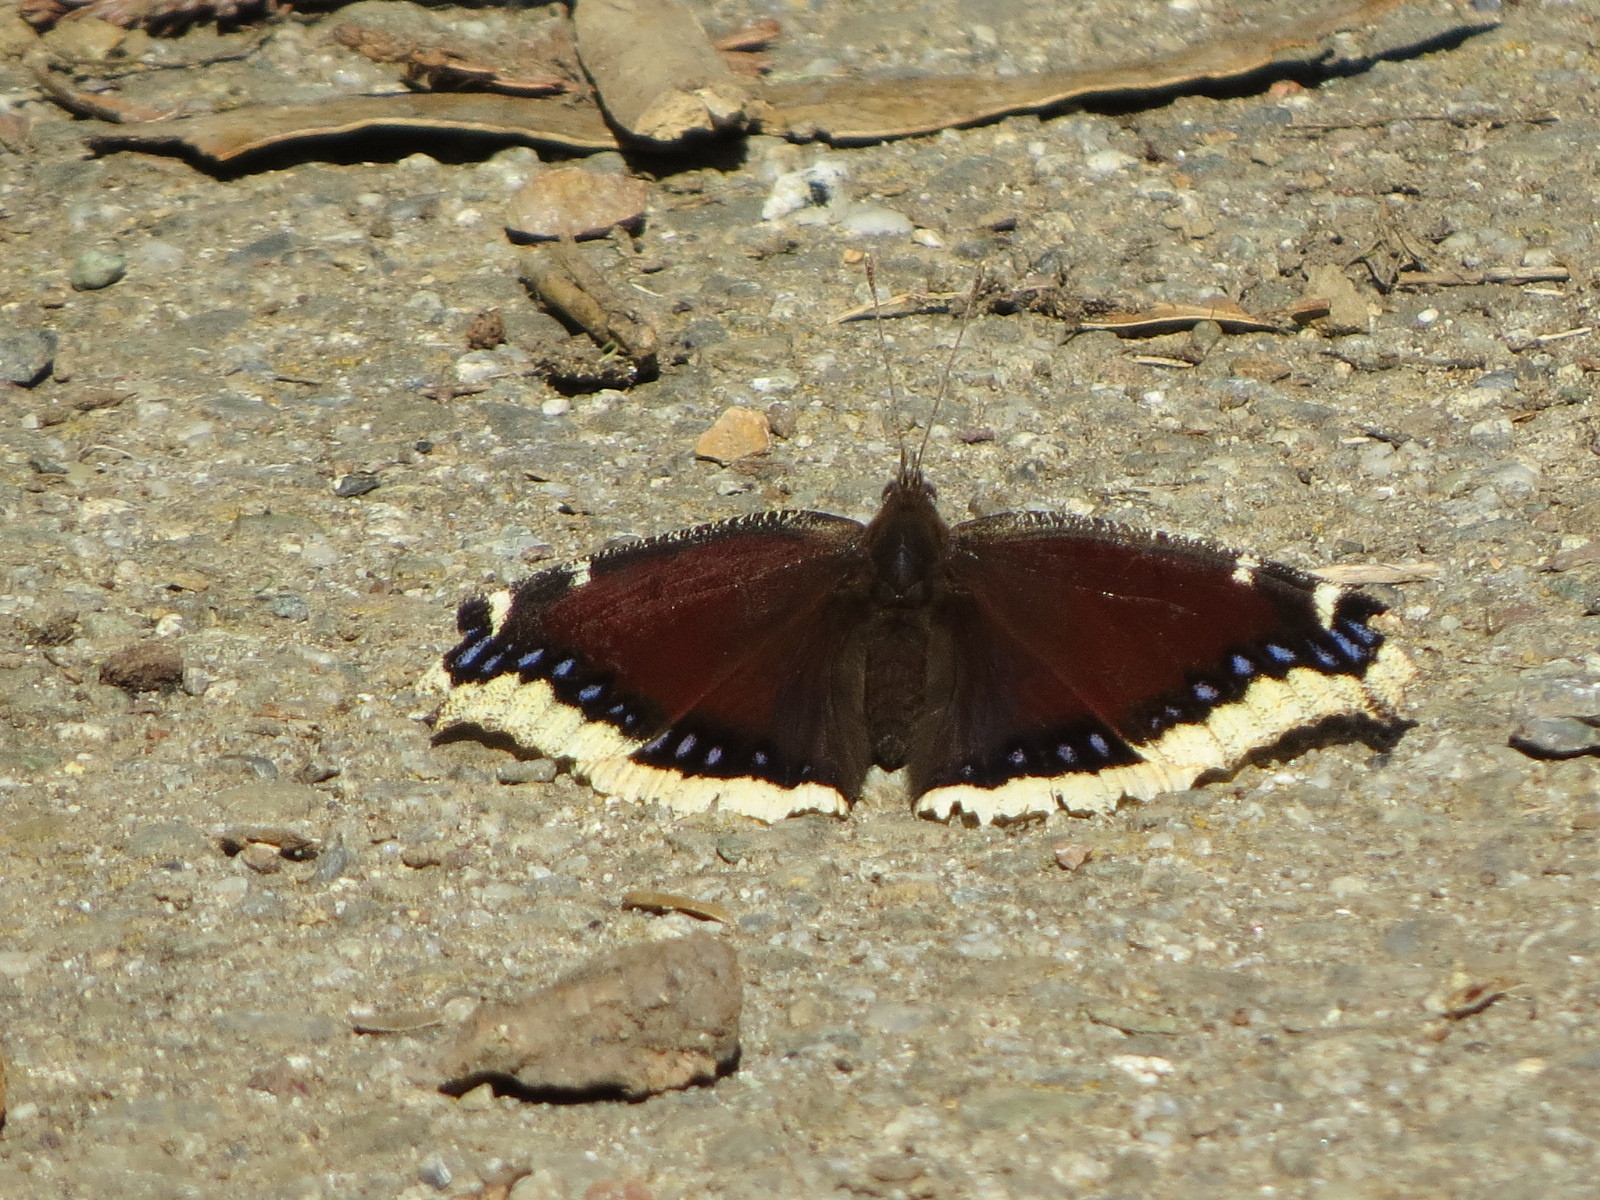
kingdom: Animalia
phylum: Arthropoda
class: Insecta
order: Lepidoptera
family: Nymphalidae
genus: Nymphalis
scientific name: Nymphalis antiopa
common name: Camberwell beauty
